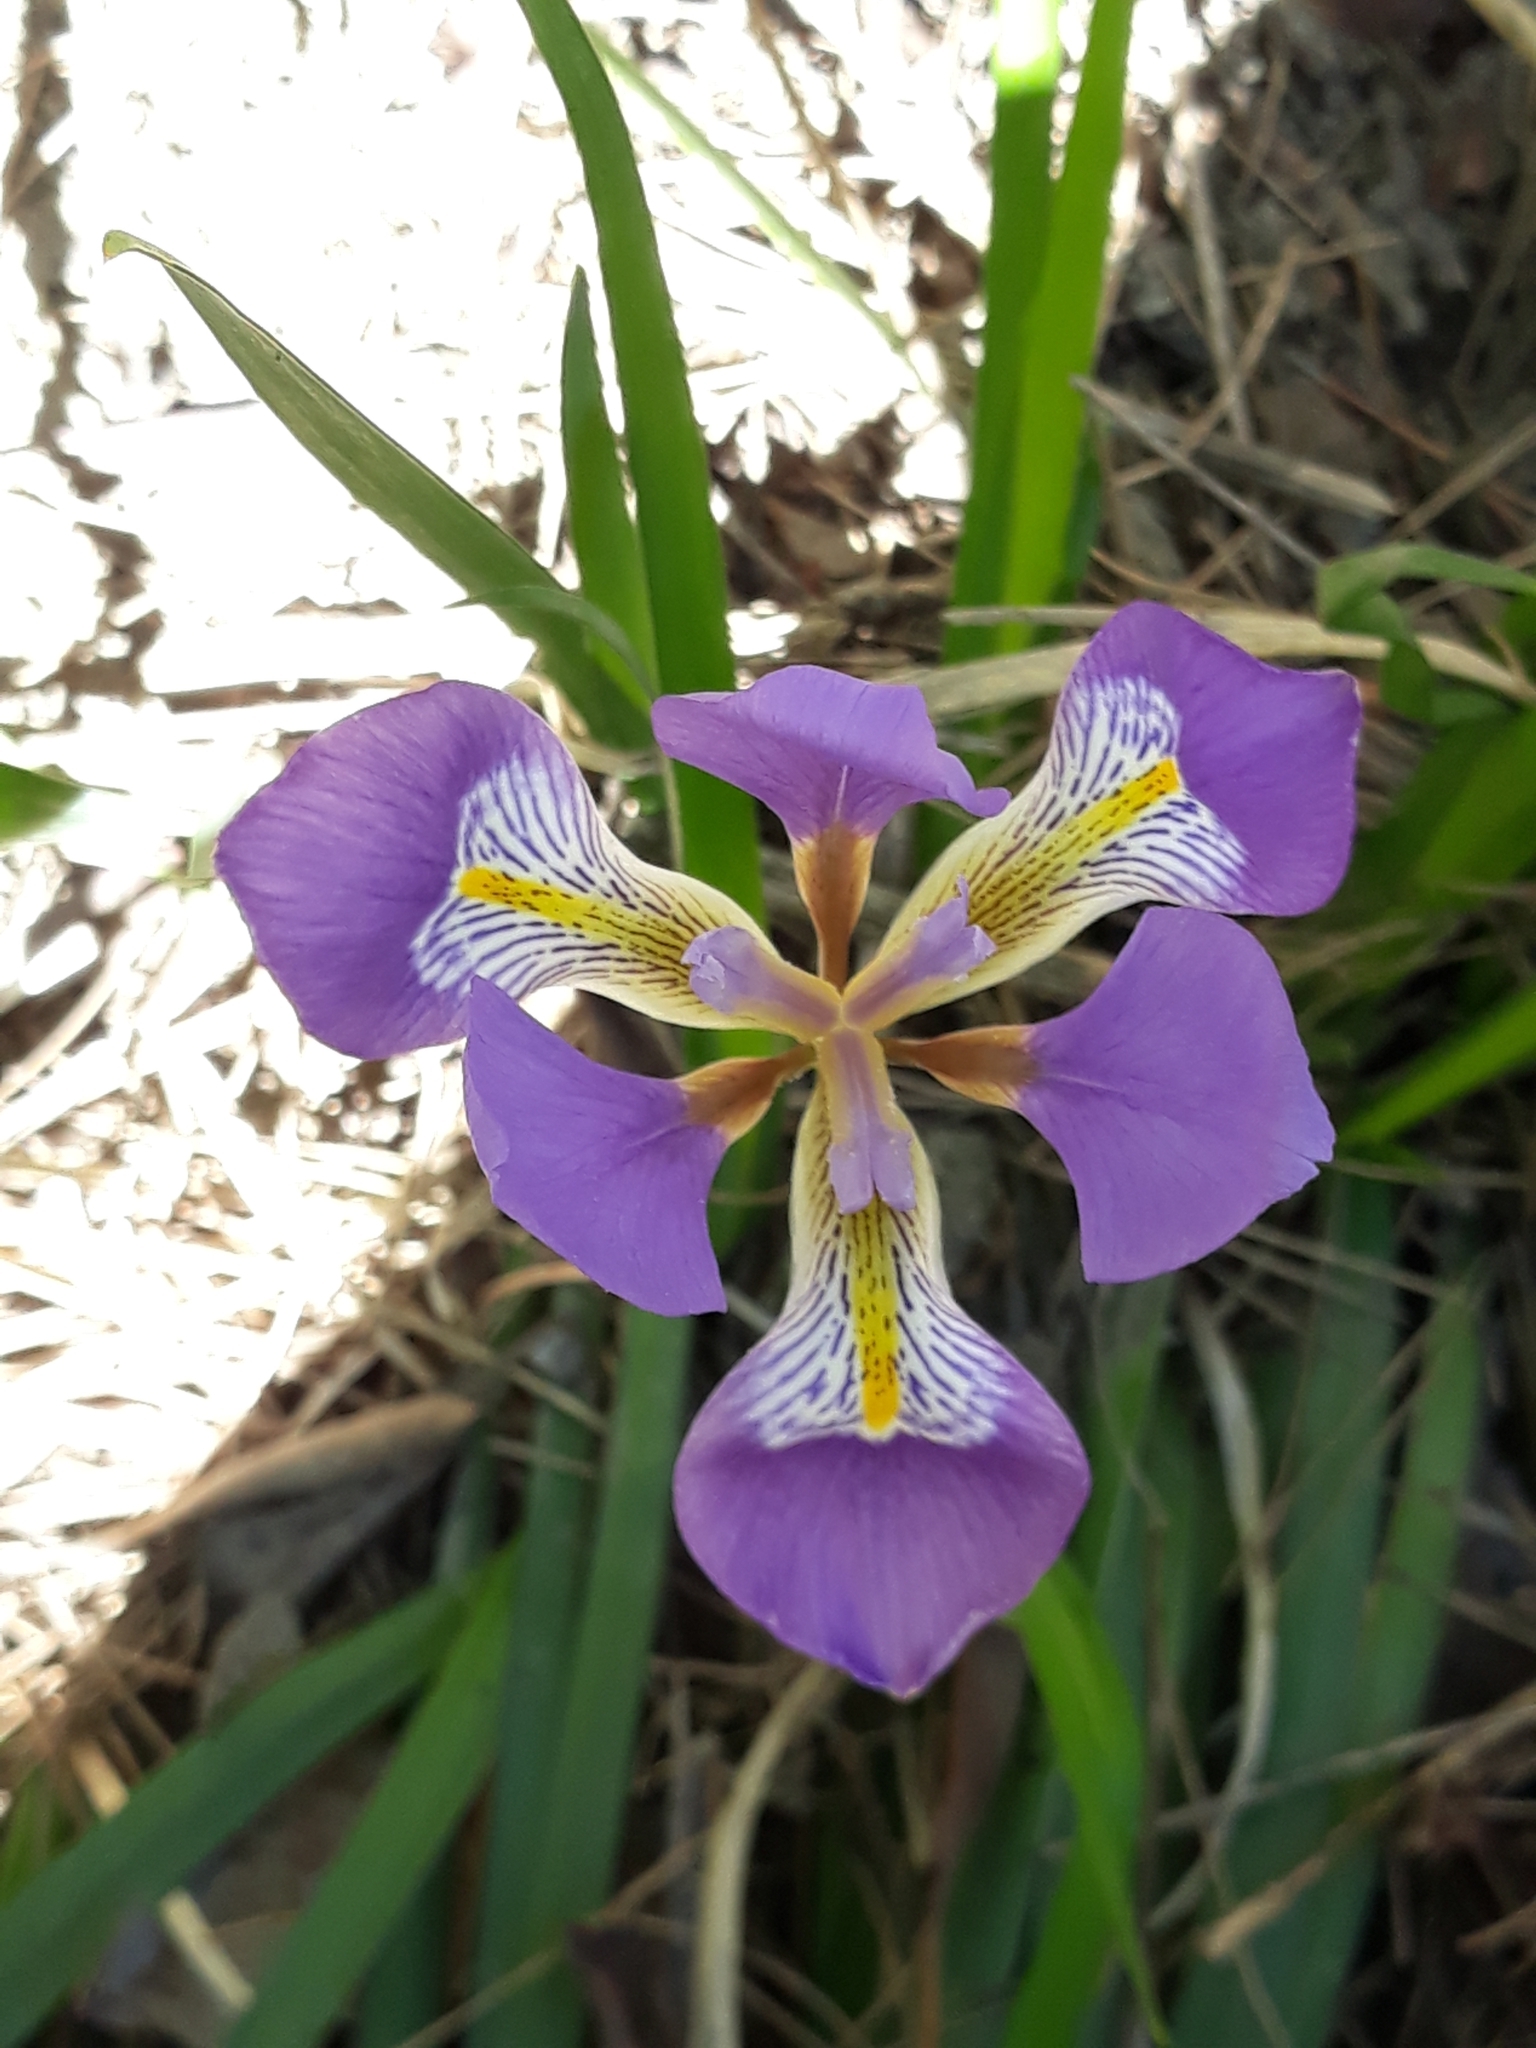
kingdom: Plantae
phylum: Tracheophyta
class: Liliopsida
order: Asparagales
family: Iridaceae
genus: Iris
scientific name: Iris unguicularis
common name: Algerian iris
